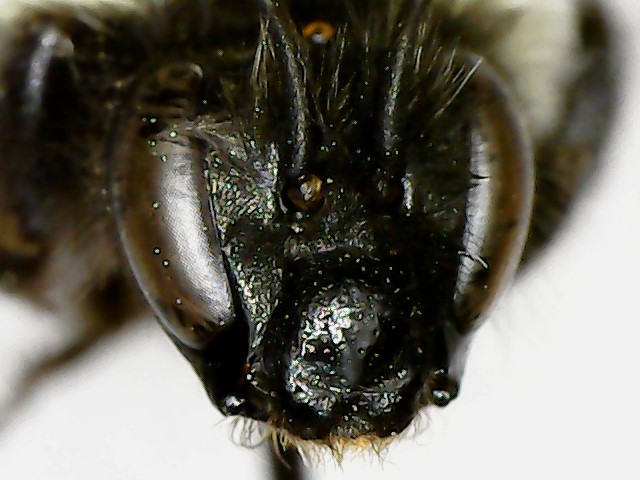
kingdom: Animalia
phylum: Arthropoda
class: Insecta
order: Hymenoptera
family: Apidae
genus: Bombus
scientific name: Bombus impatiens
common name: Common eastern bumble bee
